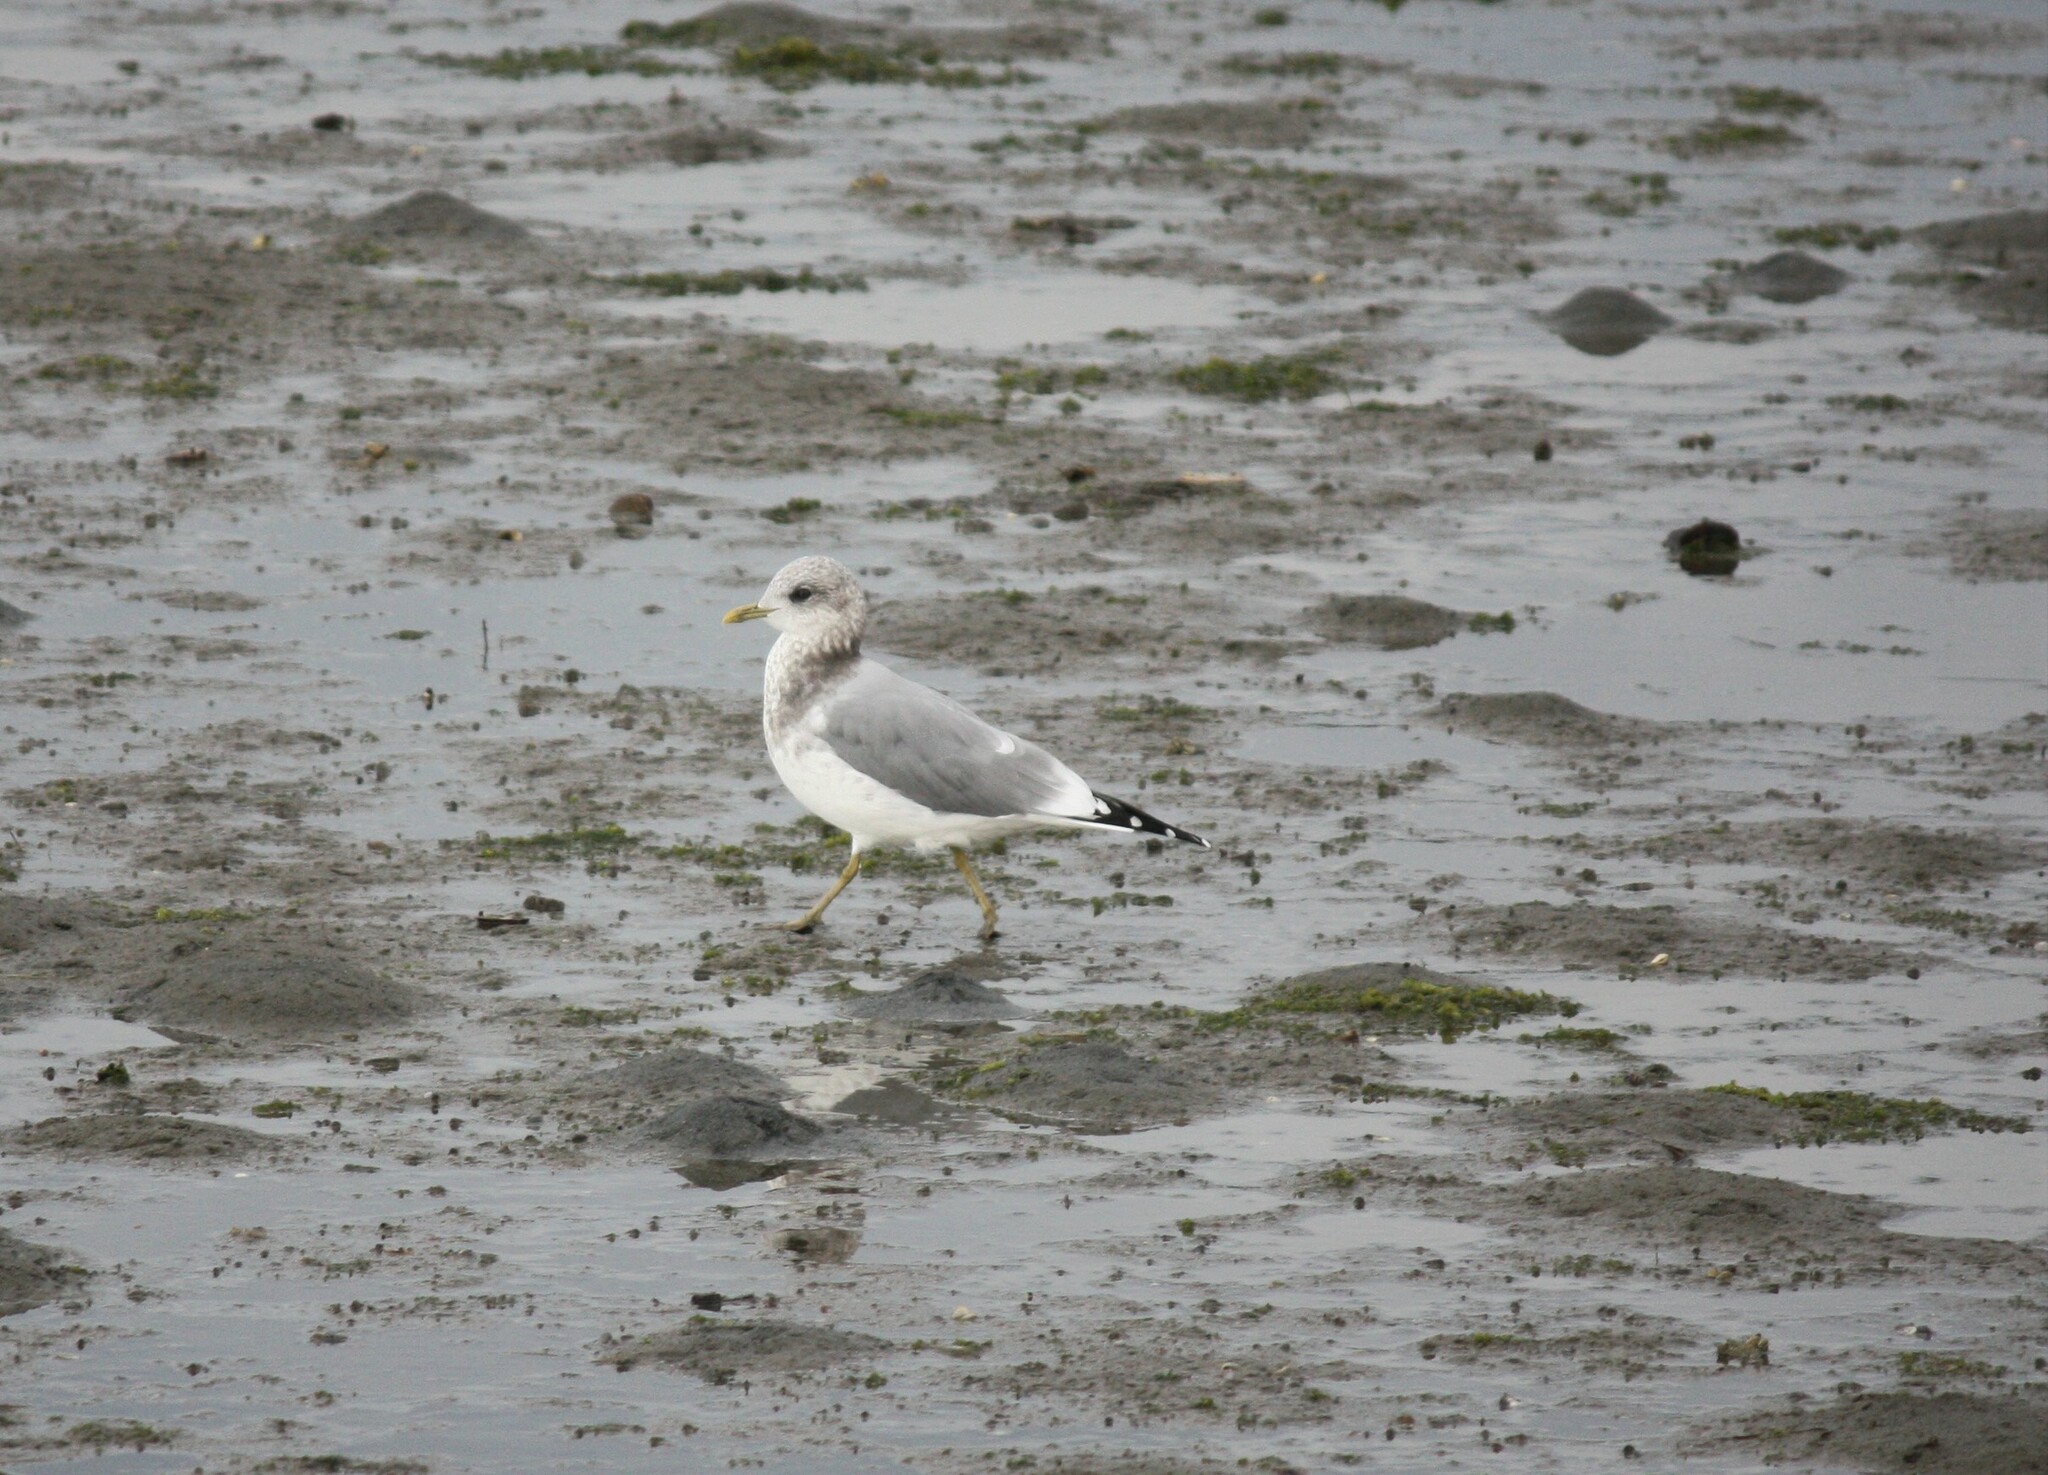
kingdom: Animalia
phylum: Chordata
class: Aves
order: Charadriiformes
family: Laridae
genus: Larus
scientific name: Larus brachyrhynchus
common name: Short-billed gull
